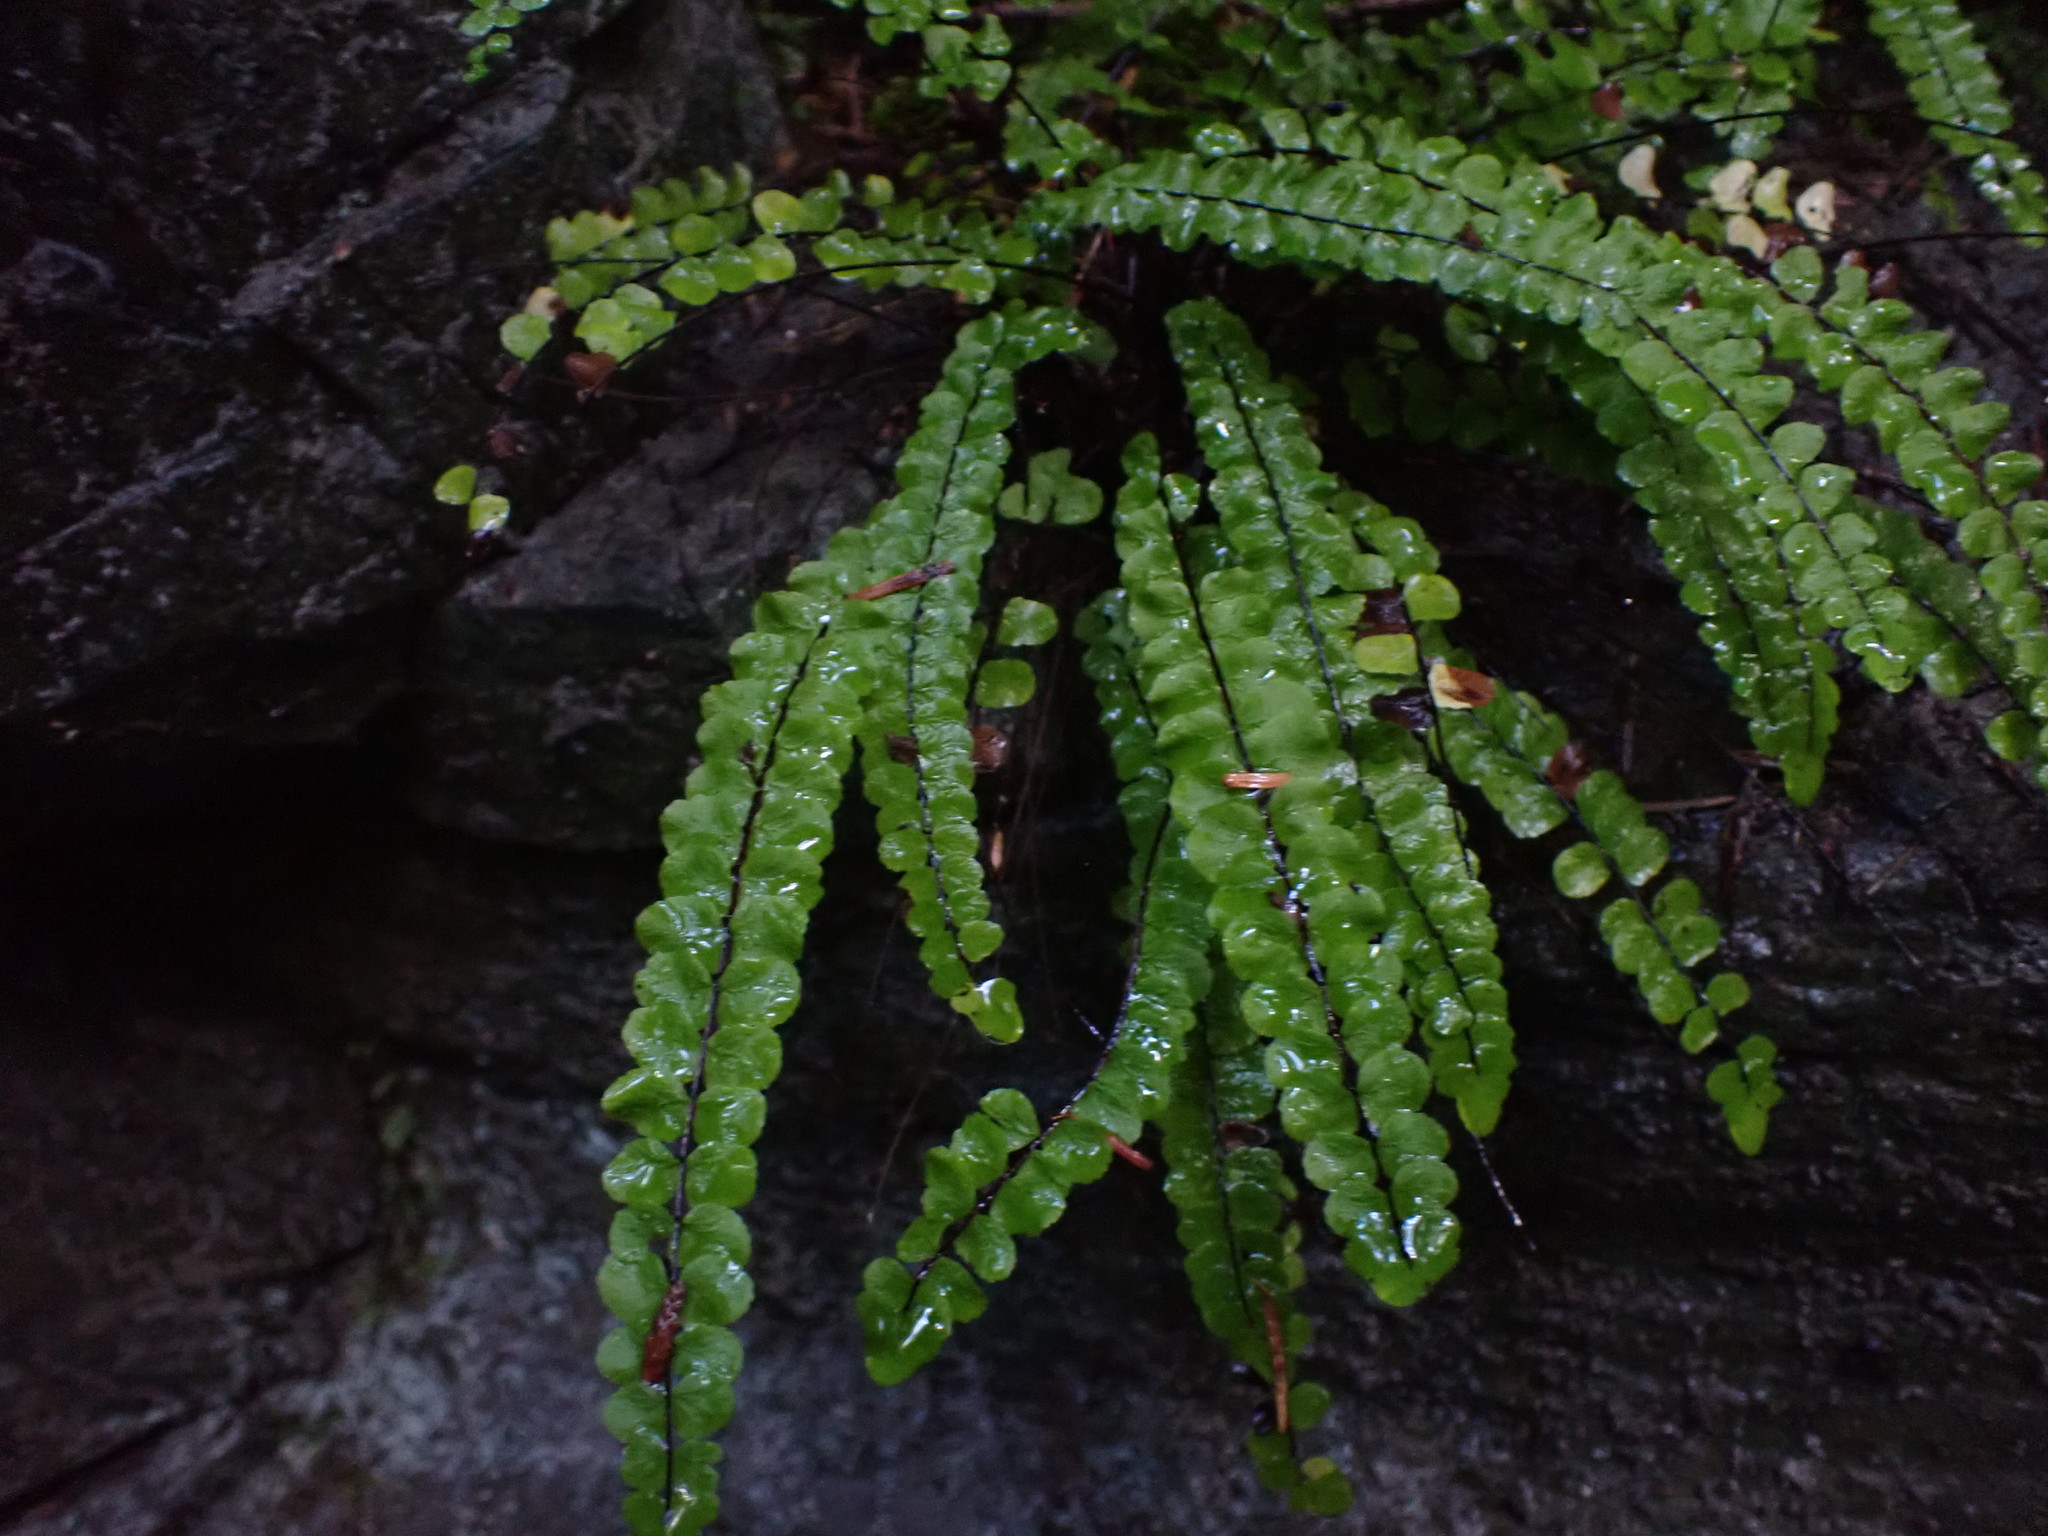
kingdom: Plantae
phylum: Tracheophyta
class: Polypodiopsida
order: Polypodiales
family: Aspleniaceae
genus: Asplenium
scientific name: Asplenium trichomanes
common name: Maidenhair spleenwort
